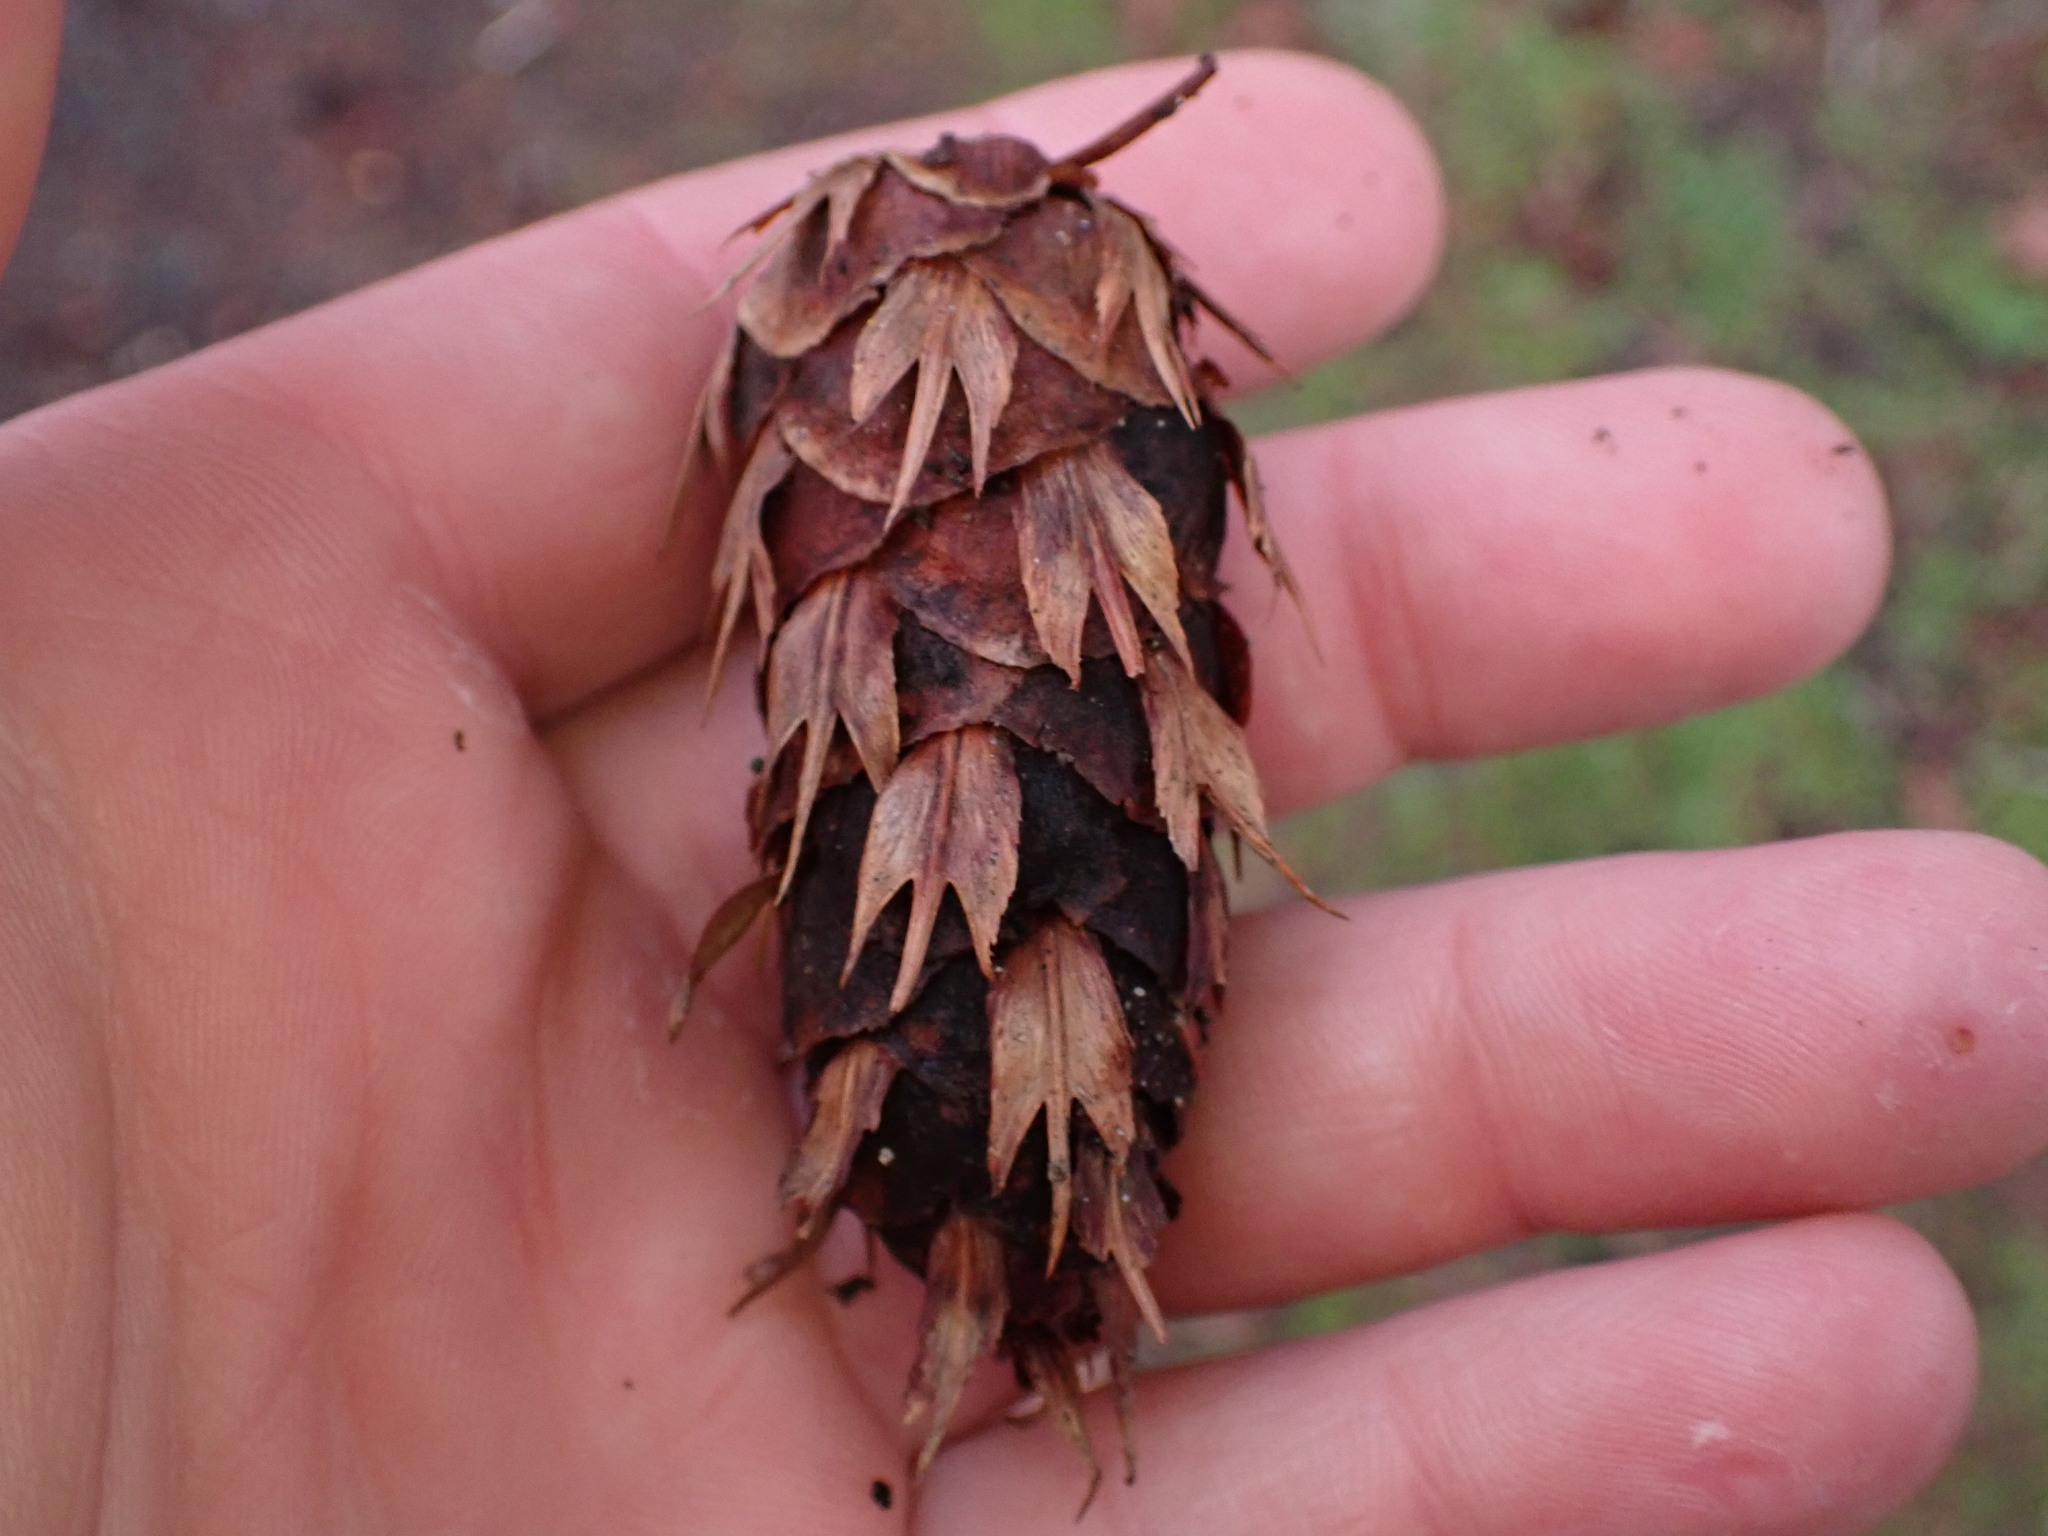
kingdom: Plantae
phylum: Tracheophyta
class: Pinopsida
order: Pinales
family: Pinaceae
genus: Pseudotsuga
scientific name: Pseudotsuga menziesii
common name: Douglas fir
